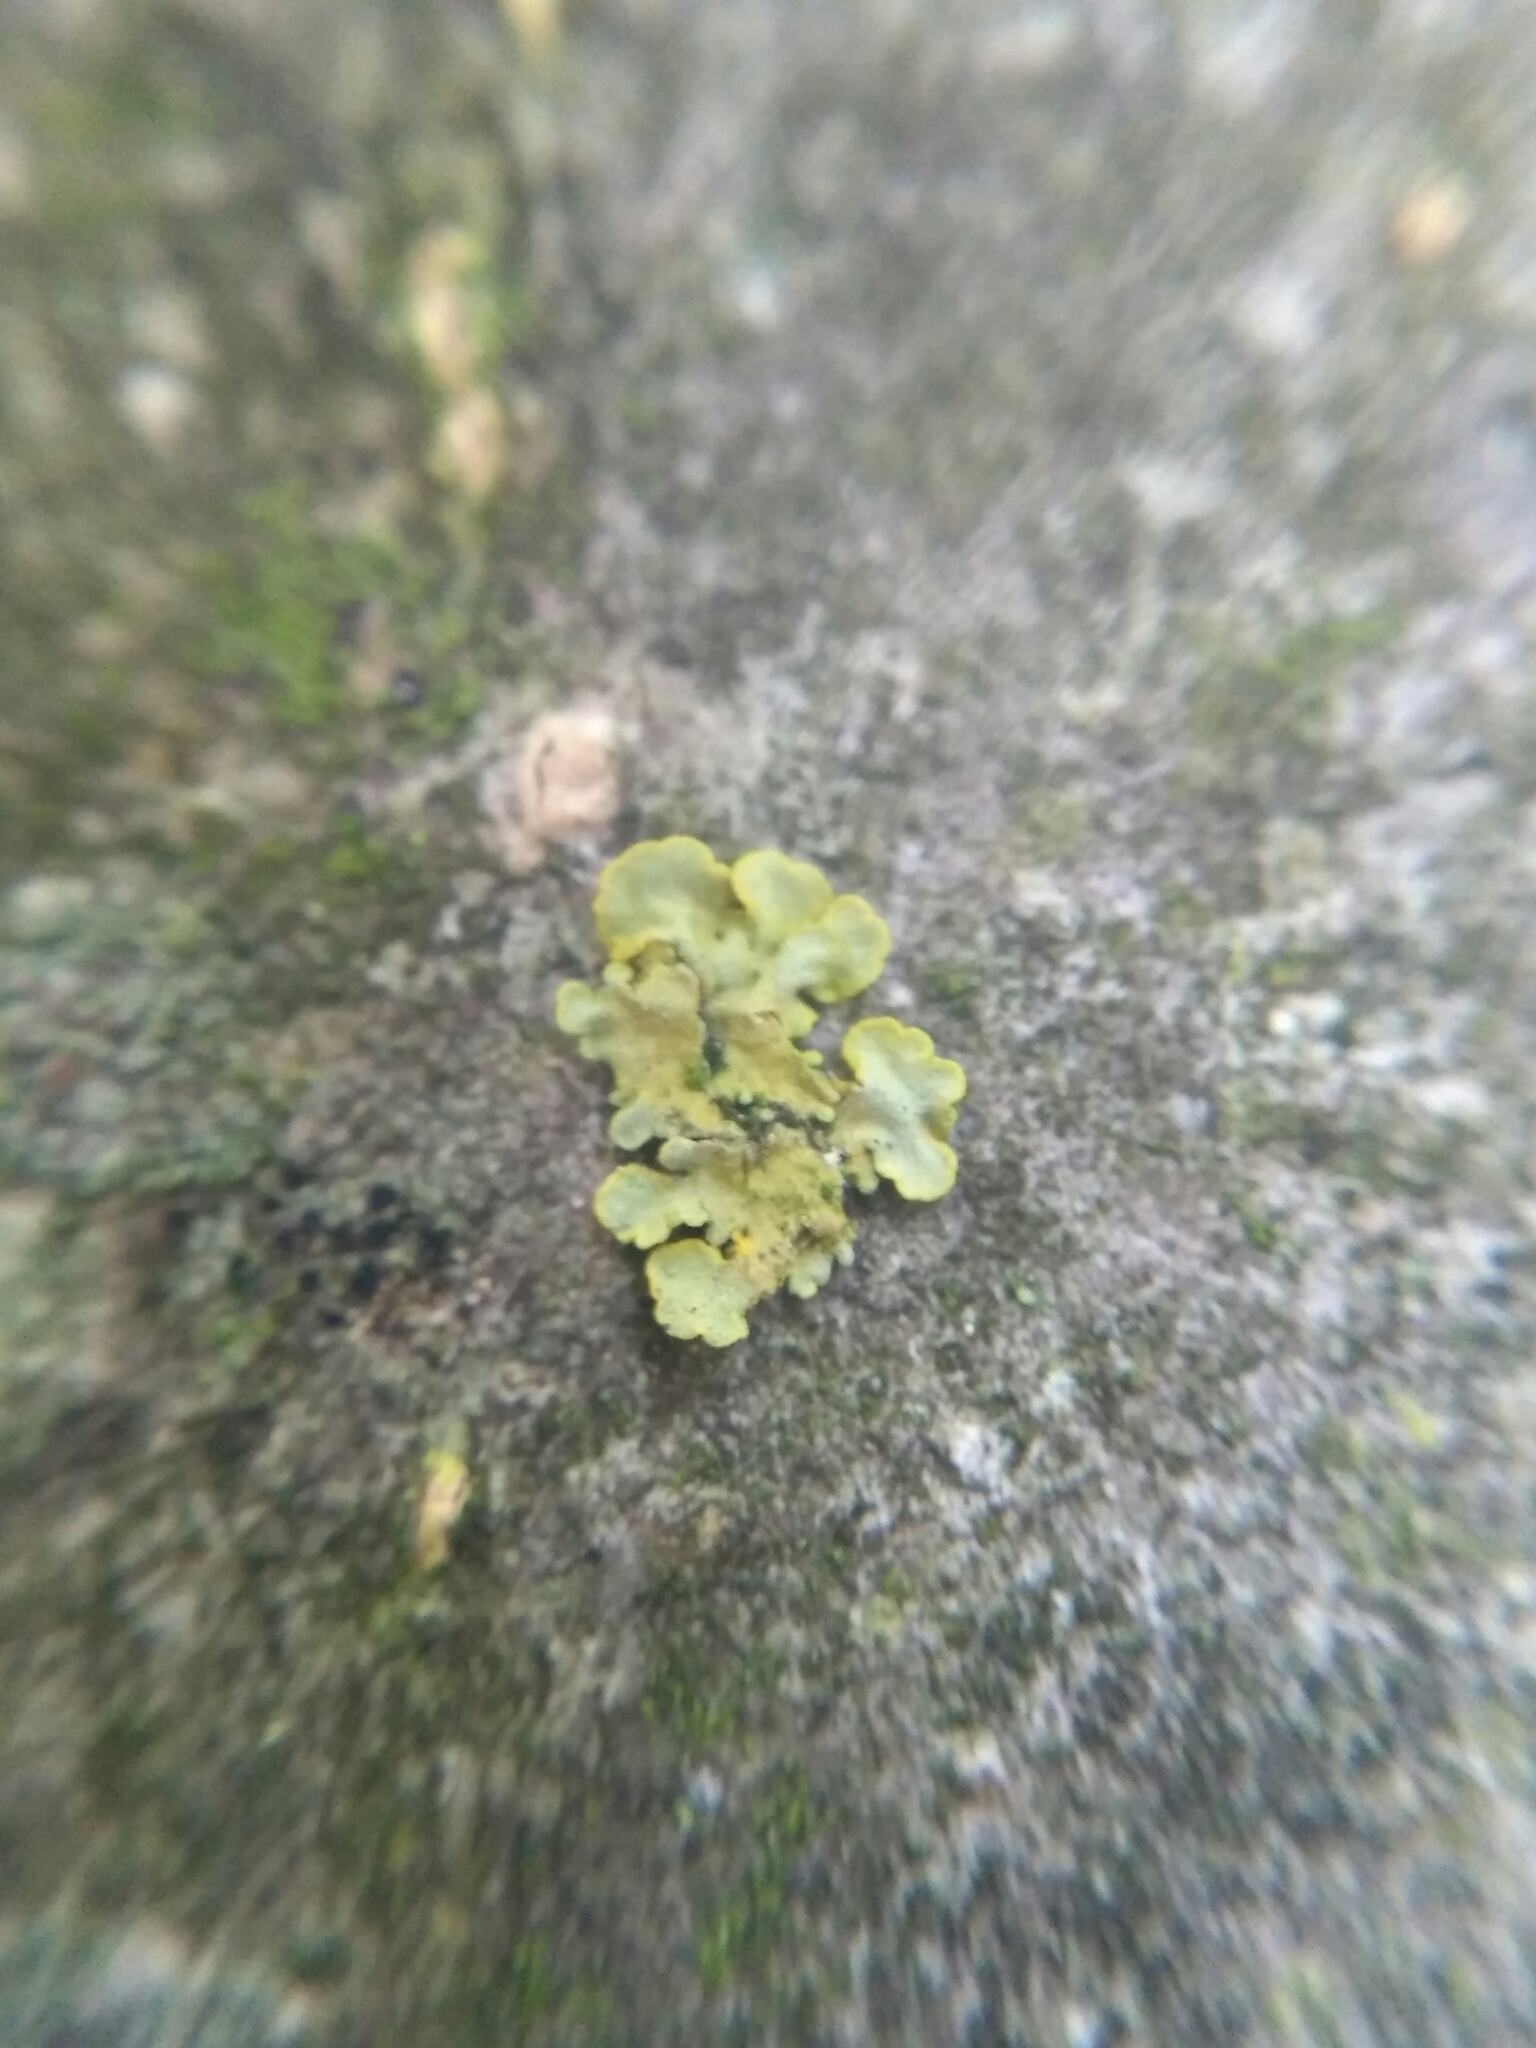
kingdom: Fungi
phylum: Ascomycota
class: Lecanoromycetes
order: Teloschistales
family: Teloschistaceae
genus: Xanthoria
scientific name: Xanthoria parietina
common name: Common orange lichen
